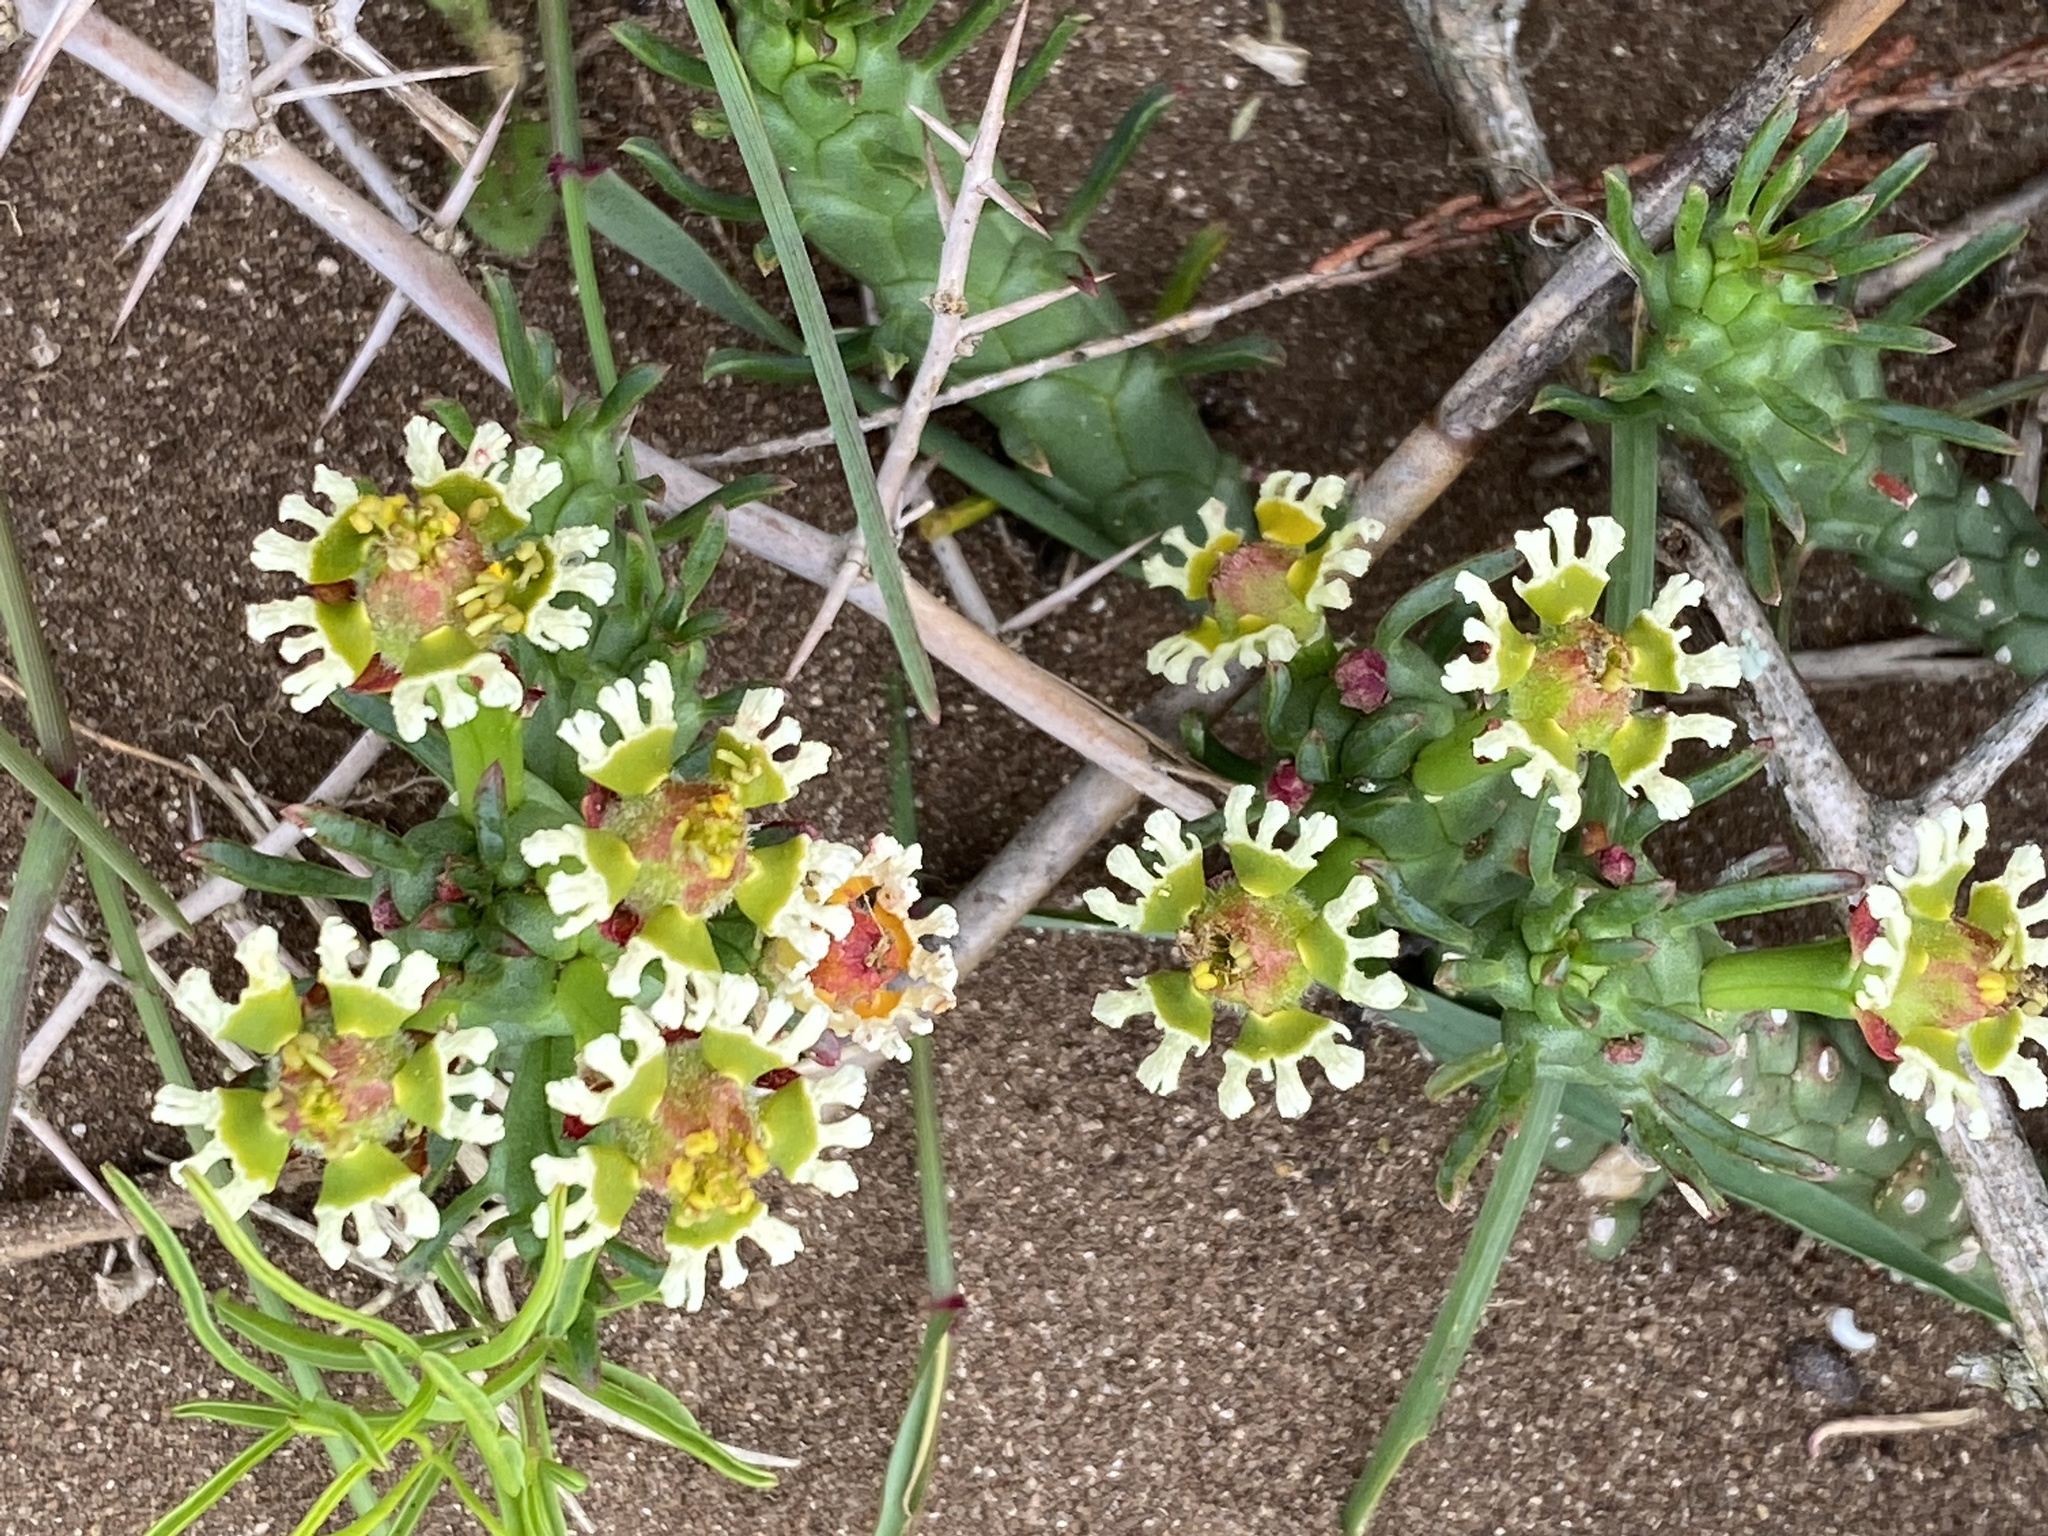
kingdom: Plantae
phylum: Tracheophyta
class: Magnoliopsida
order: Malpighiales
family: Euphorbiaceae
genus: Euphorbia
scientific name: Euphorbia caput-medusae
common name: Medusa's-head
